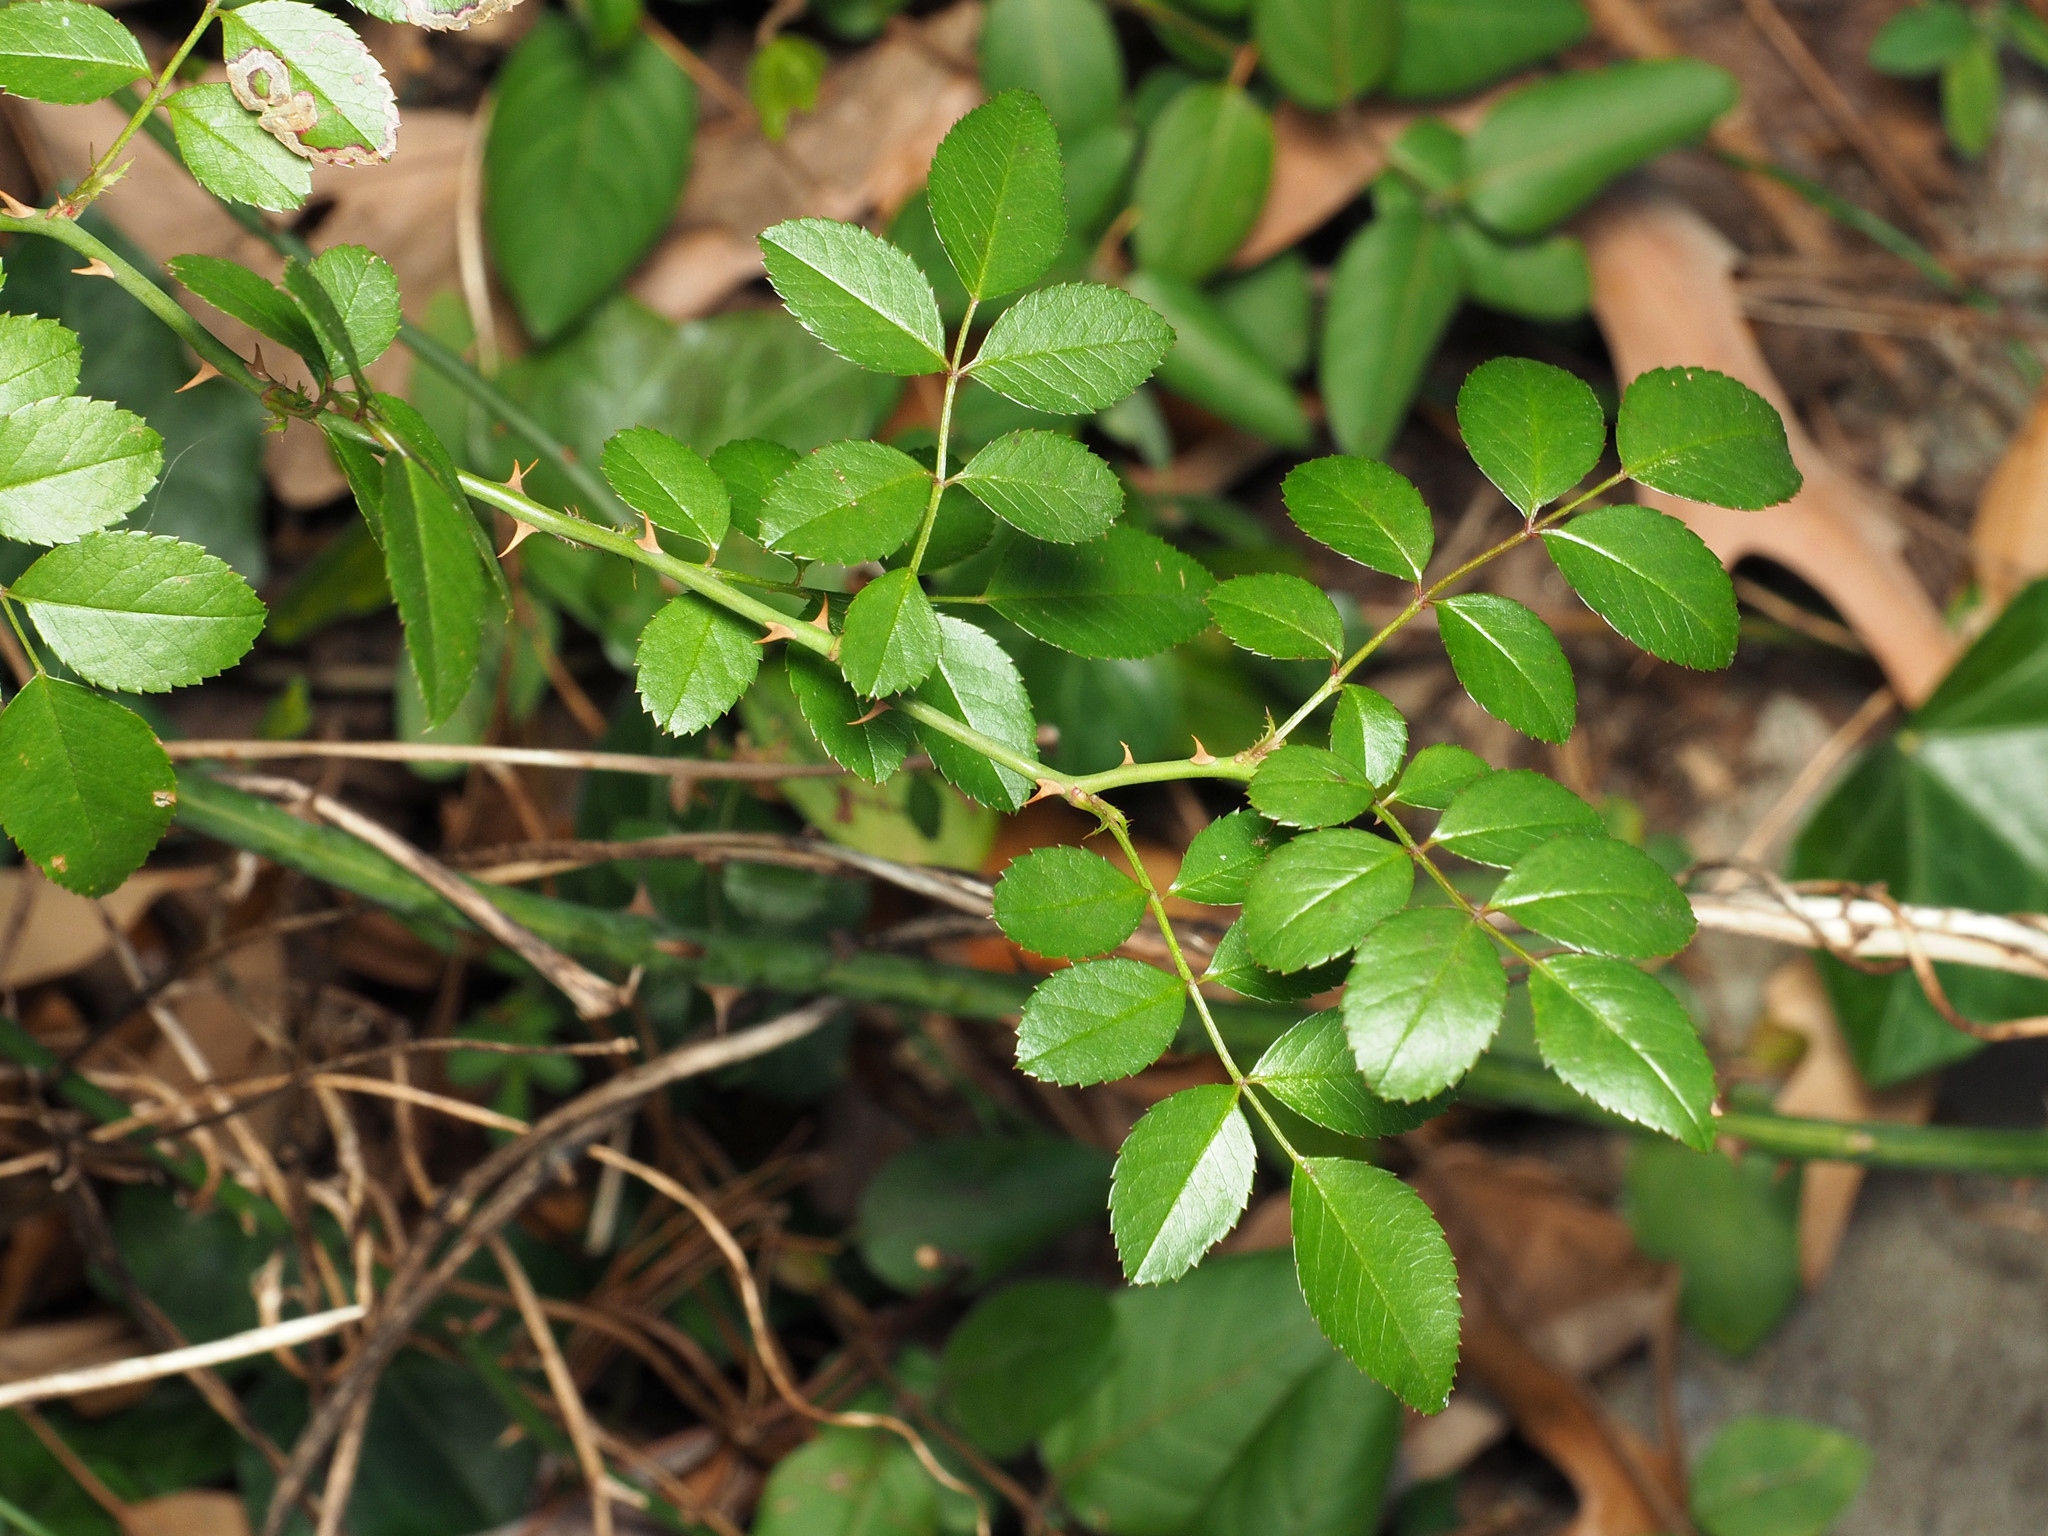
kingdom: Plantae
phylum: Tracheophyta
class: Magnoliopsida
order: Rosales
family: Rosaceae
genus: Rosa
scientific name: Rosa multiflora
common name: Multiflora rose
